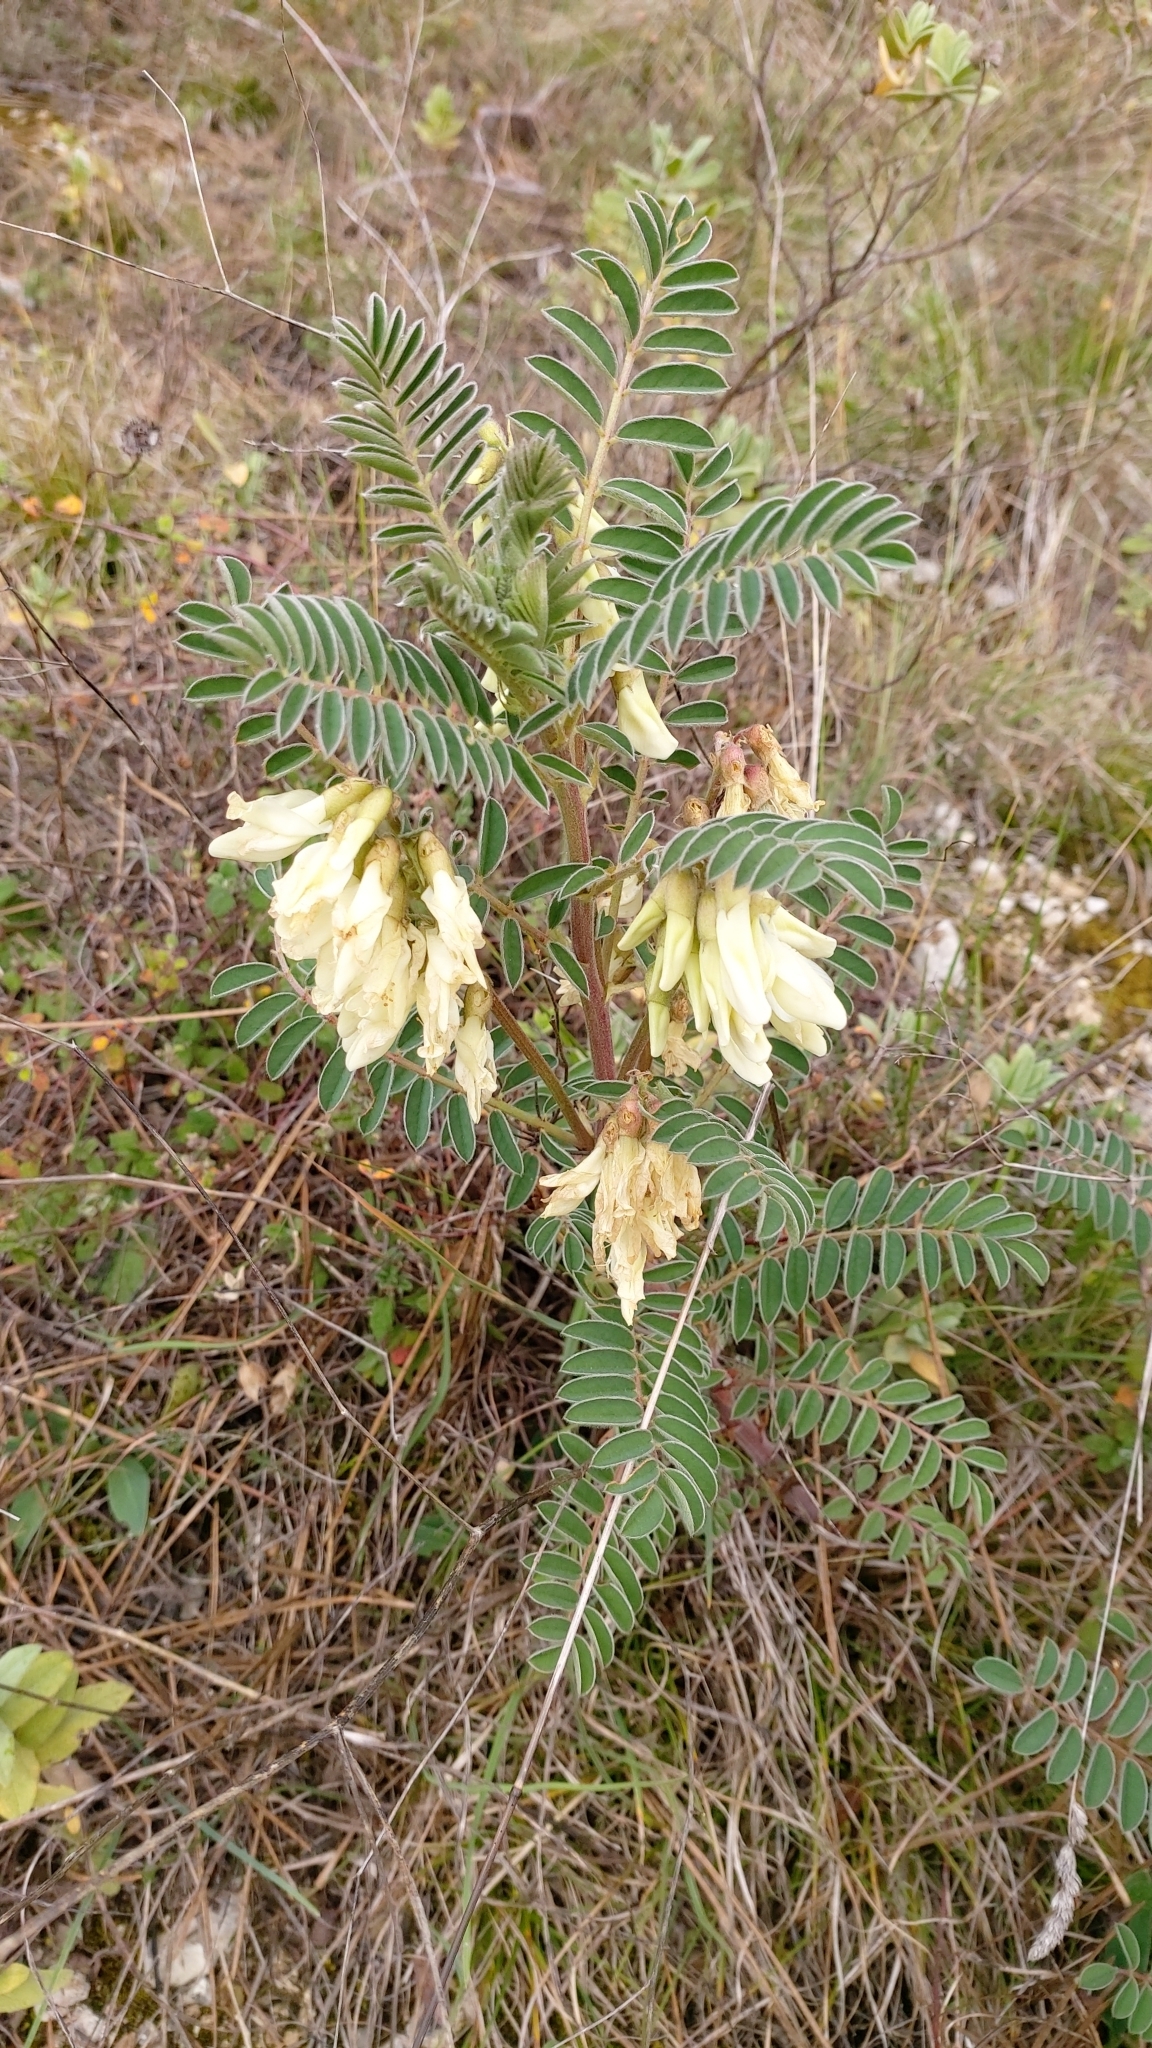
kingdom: Plantae
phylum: Tracheophyta
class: Magnoliopsida
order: Fabales
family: Fabaceae
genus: Erophaca
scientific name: Erophaca baetica
